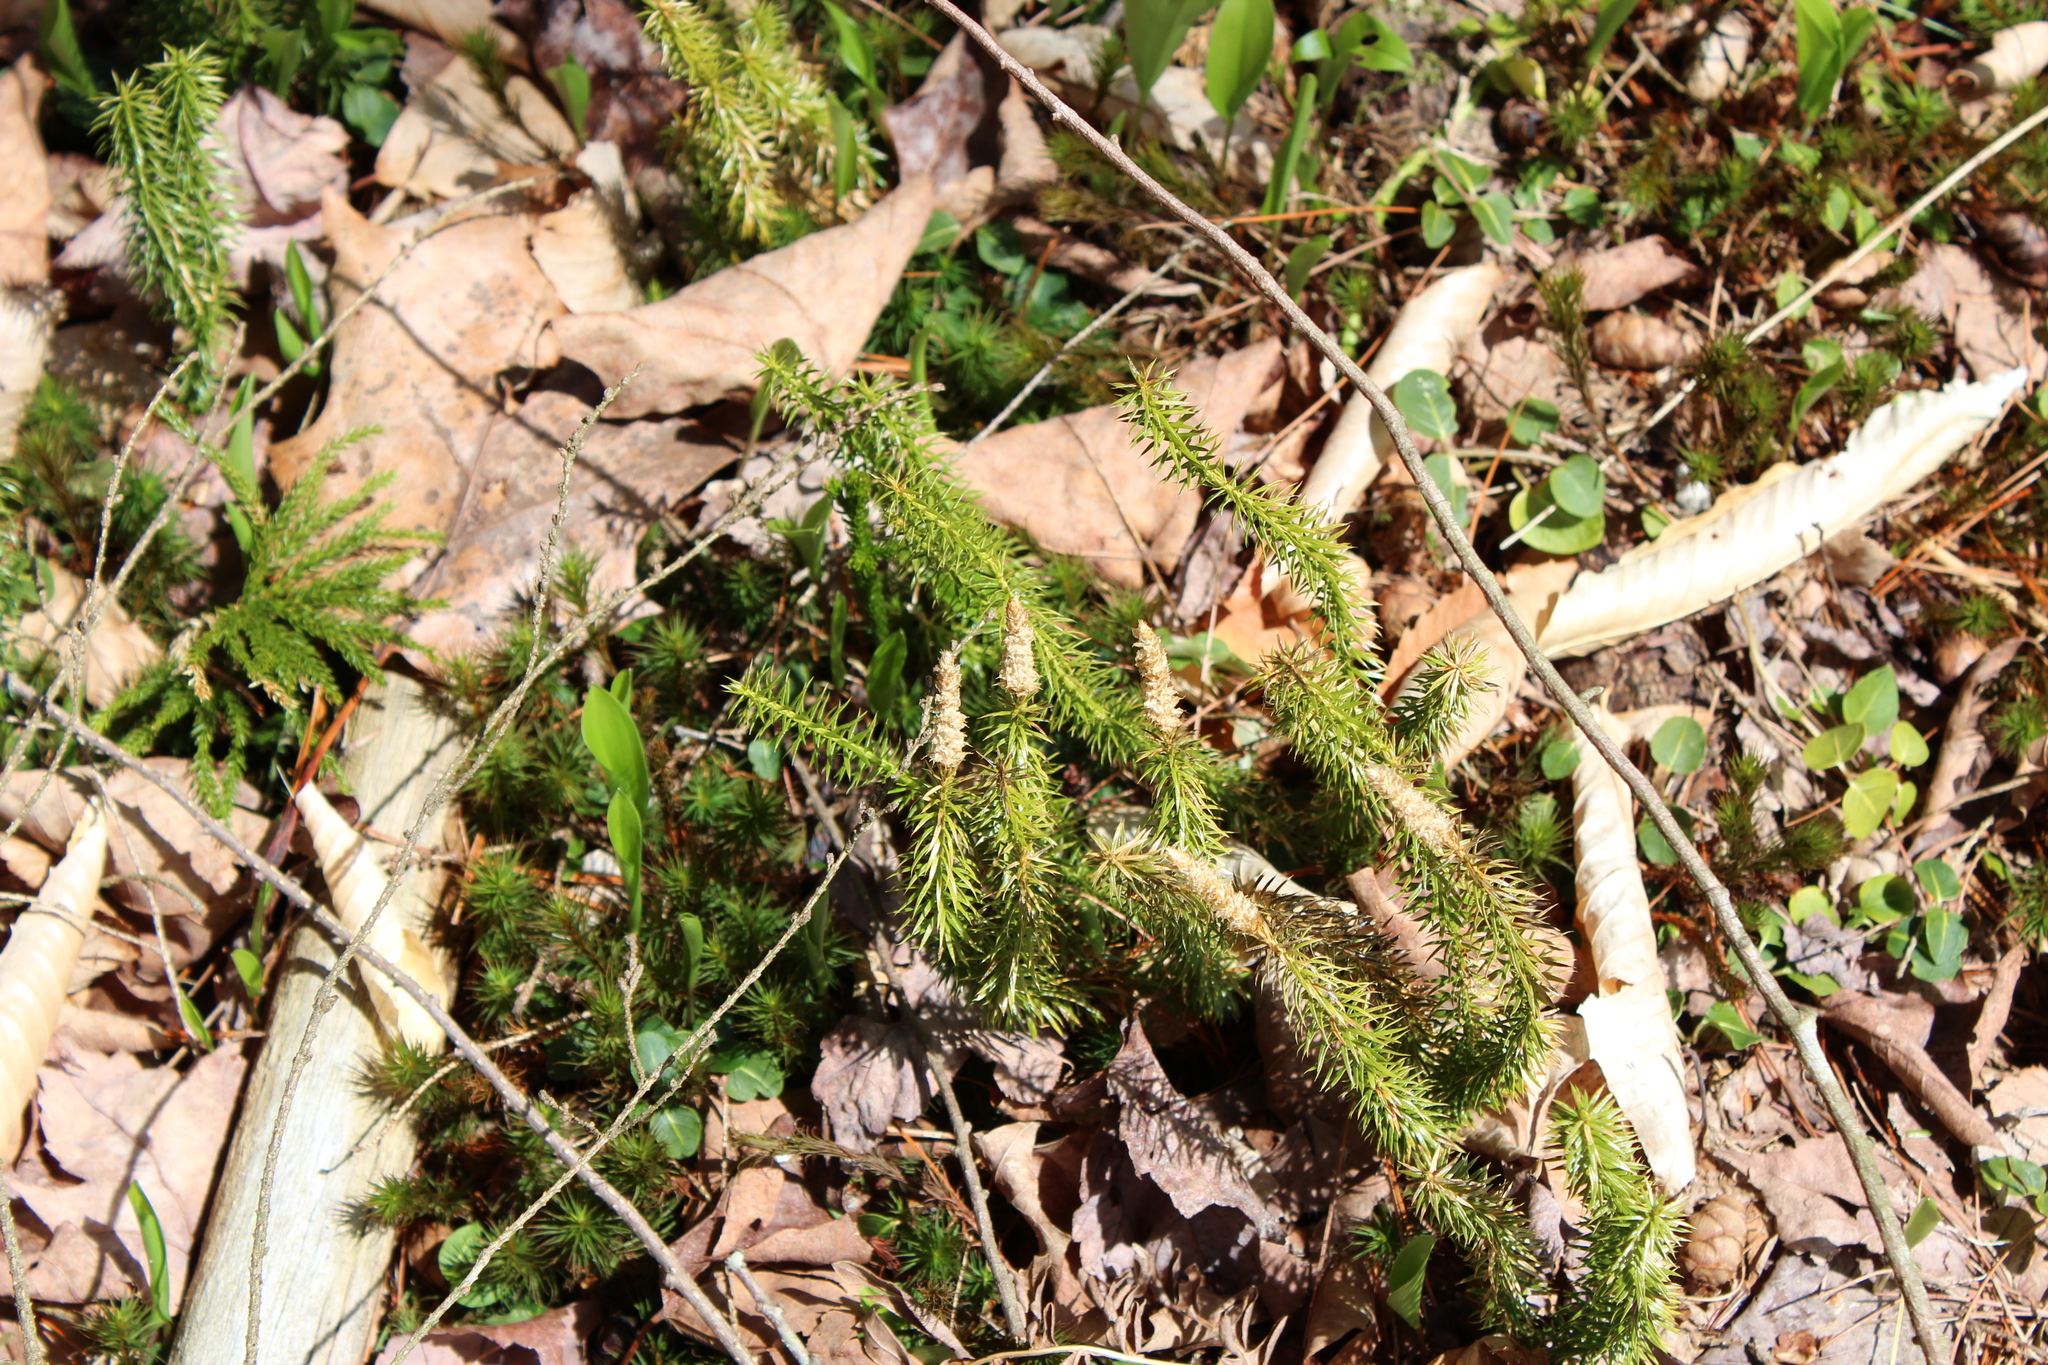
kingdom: Plantae
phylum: Tracheophyta
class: Lycopodiopsida
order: Lycopodiales
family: Lycopodiaceae
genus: Spinulum
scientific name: Spinulum annotinum
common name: Interrupted club-moss
